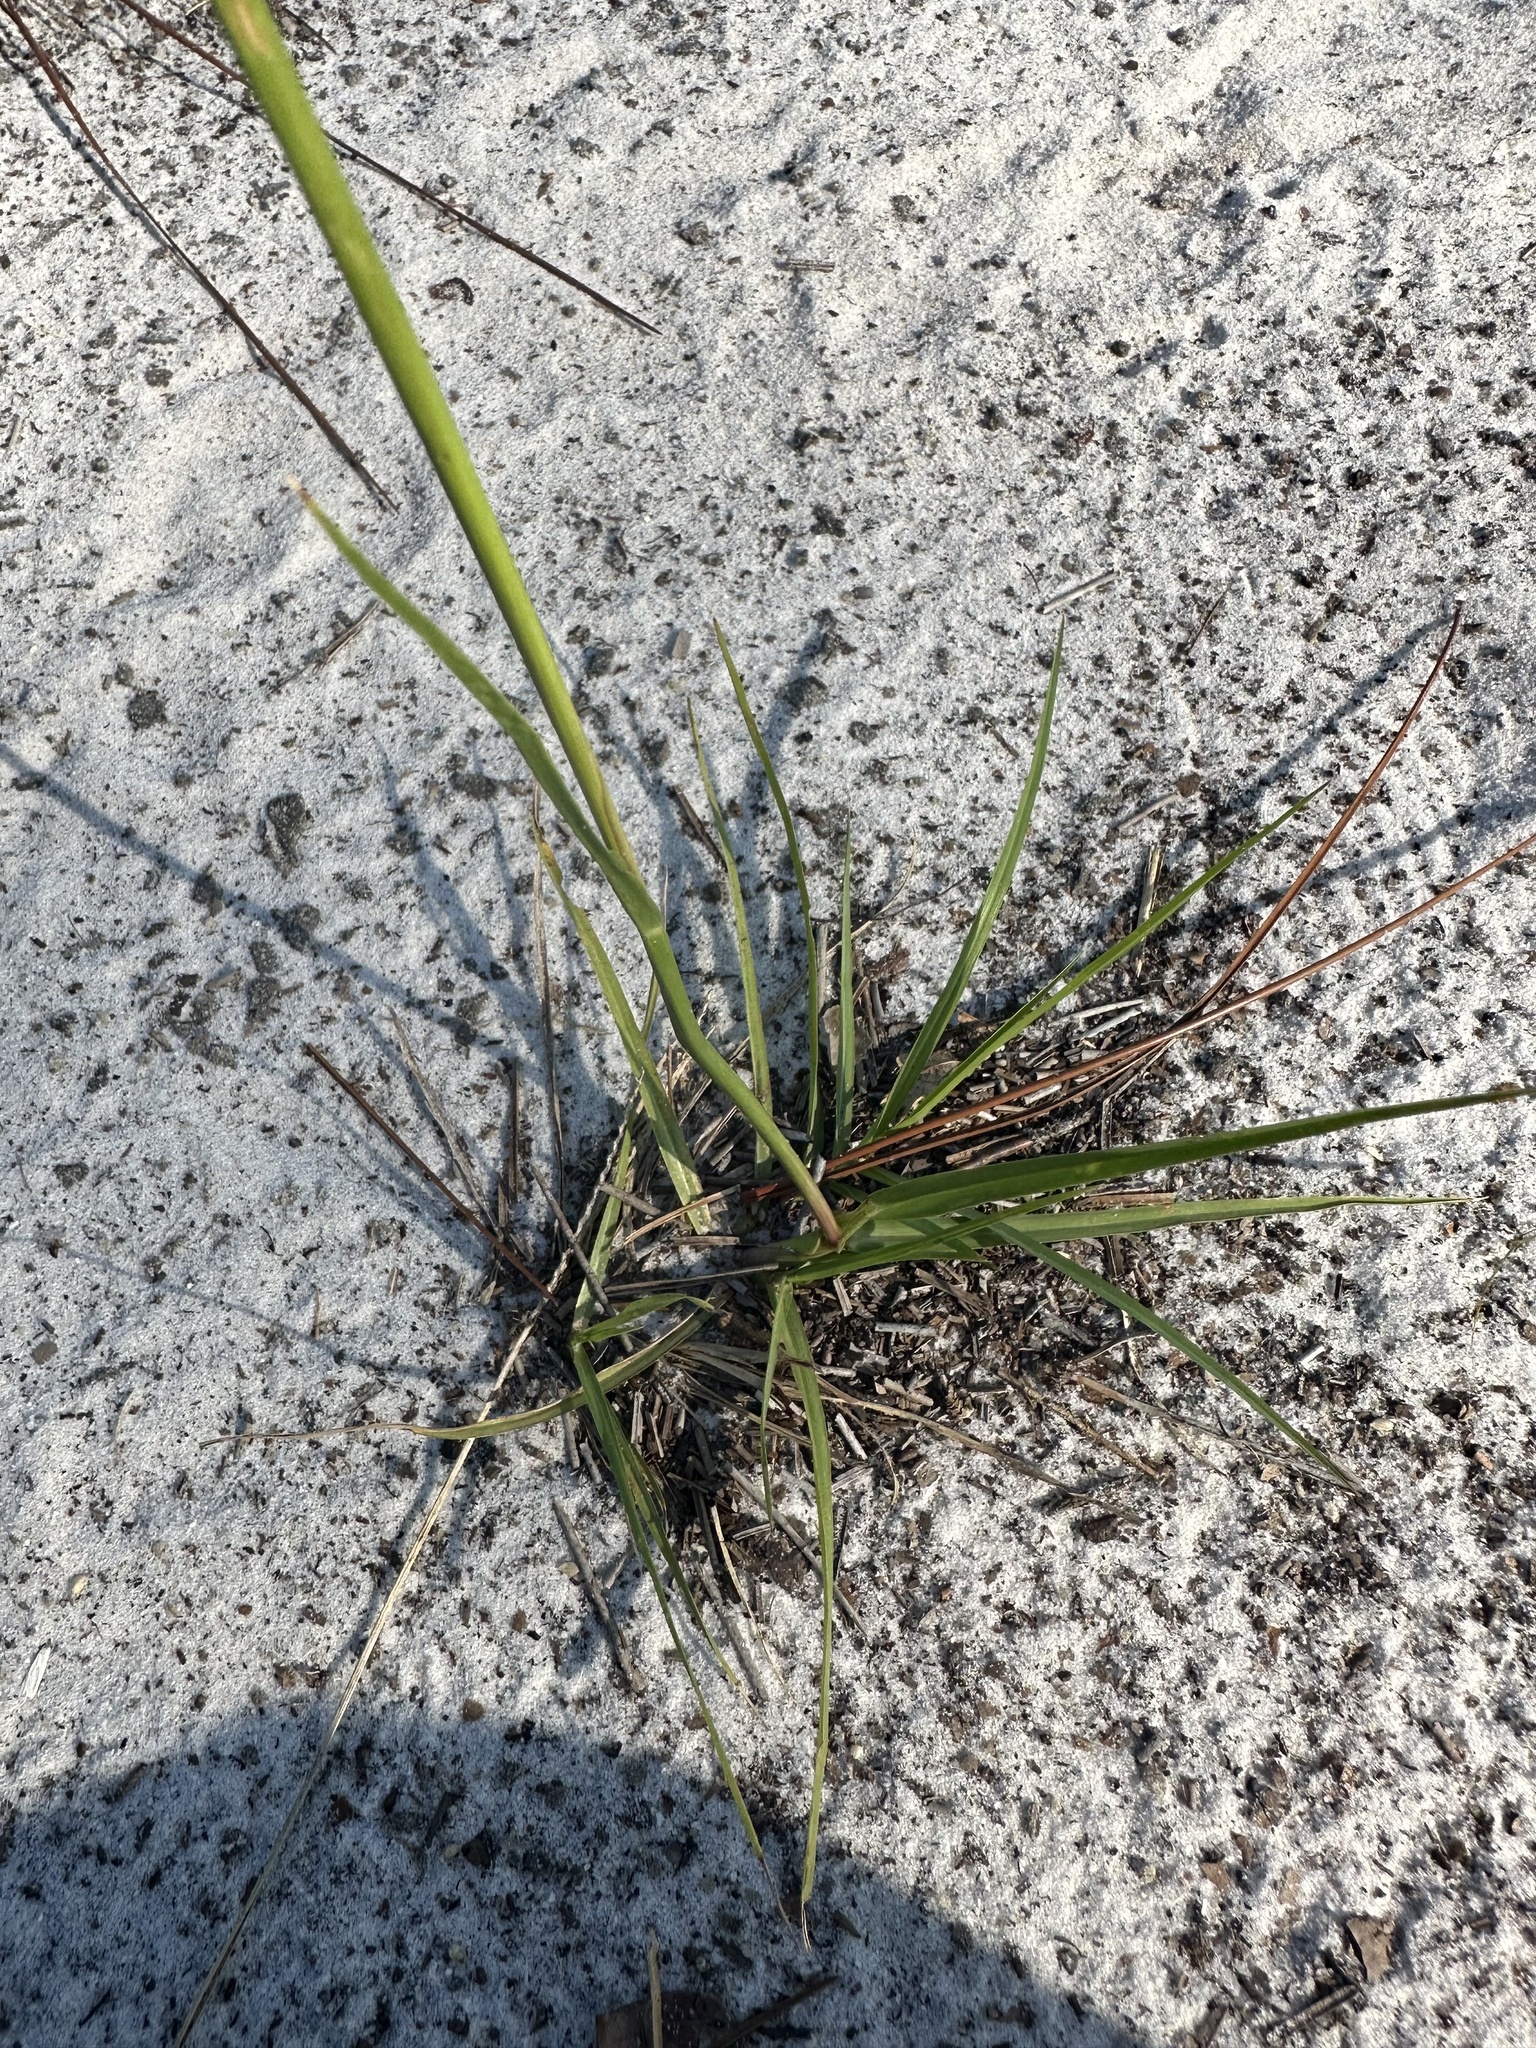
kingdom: Plantae
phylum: Tracheophyta
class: Liliopsida
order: Poales
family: Poaceae
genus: Paspalum
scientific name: Paspalum notatum
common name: Bahiagrass
